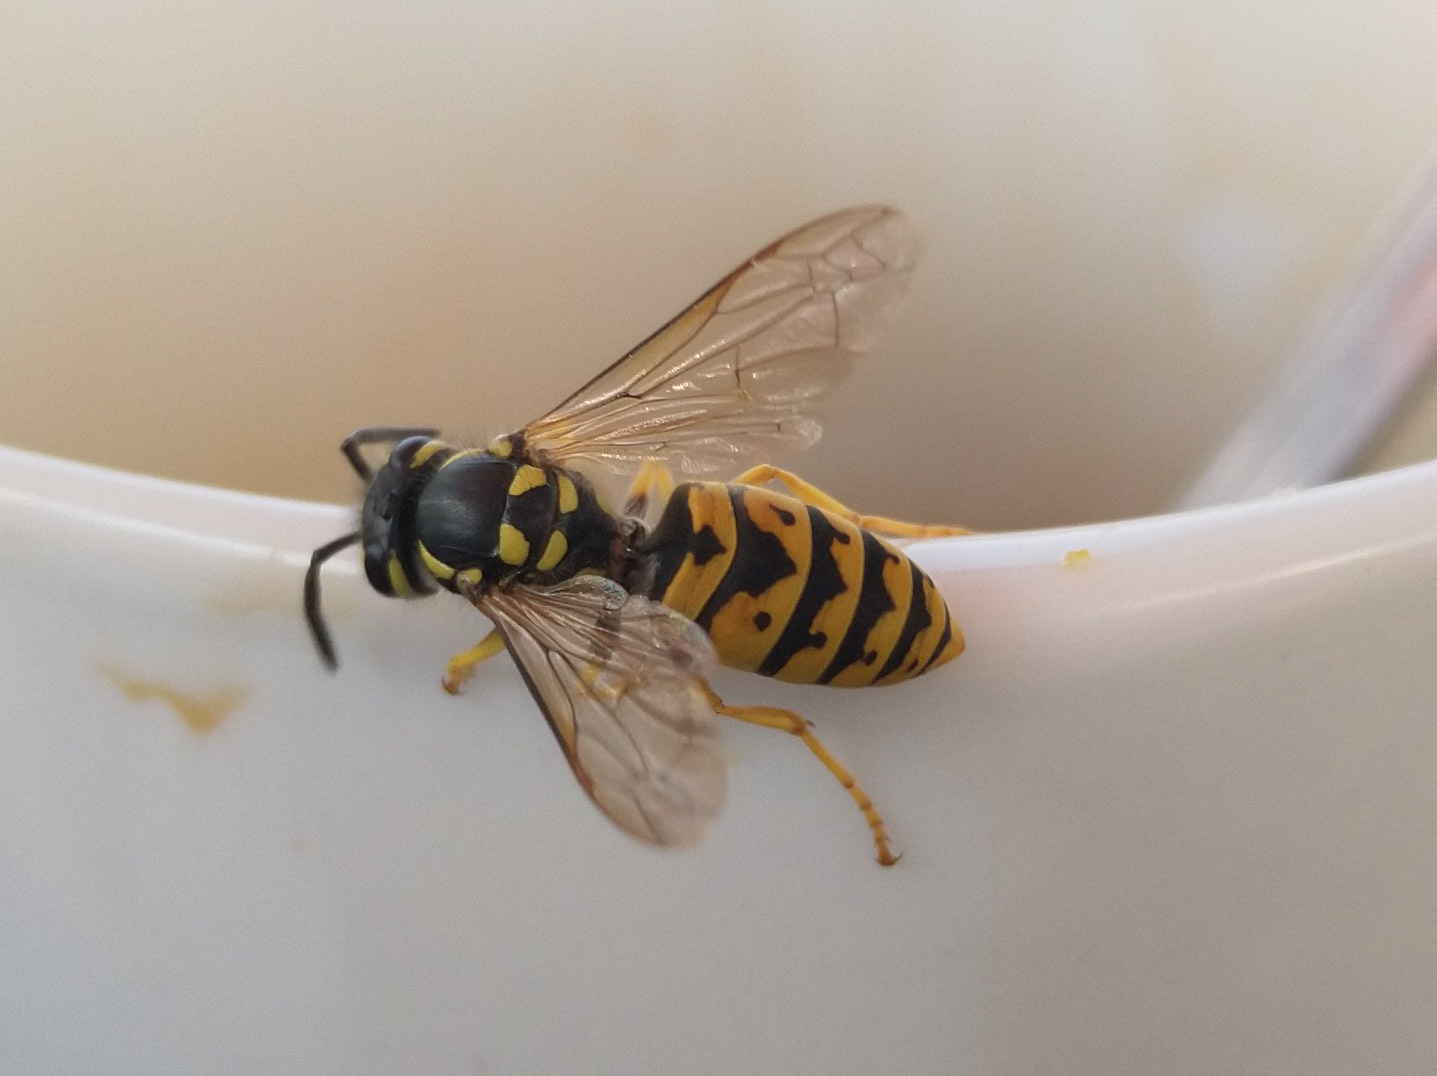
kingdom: Animalia
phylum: Arthropoda
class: Insecta
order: Hymenoptera
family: Vespidae
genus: Vespula
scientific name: Vespula germanica
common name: German wasp
